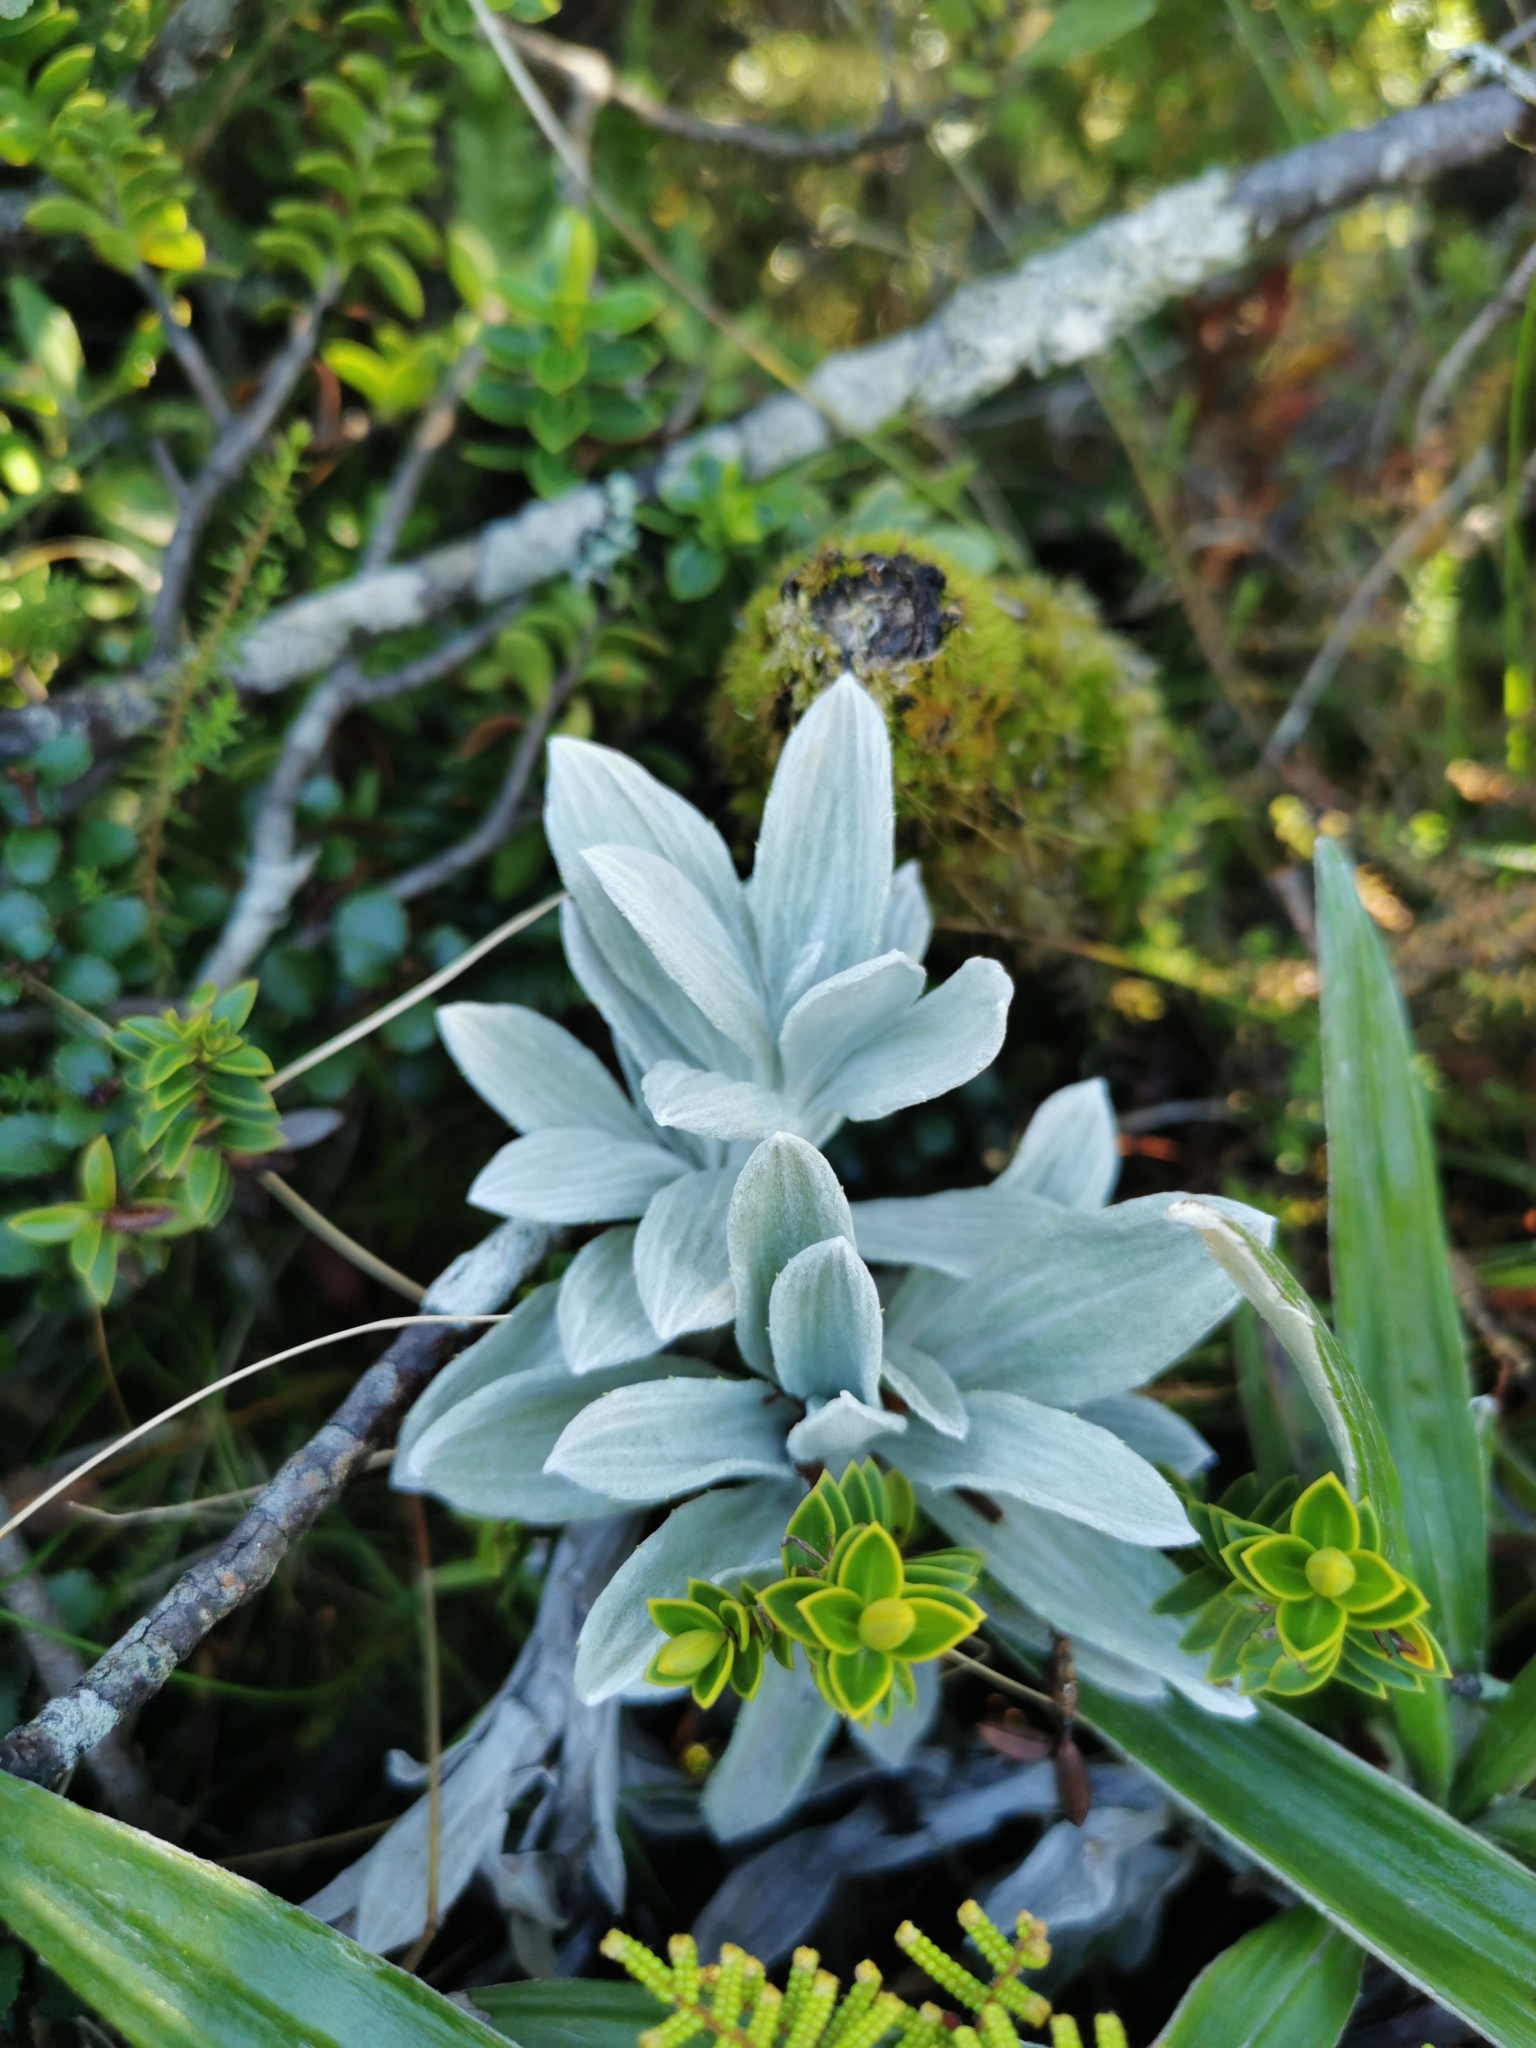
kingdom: Plantae
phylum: Tracheophyta
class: Magnoliopsida
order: Asterales
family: Asteraceae
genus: Celmisia
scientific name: Celmisia incana
